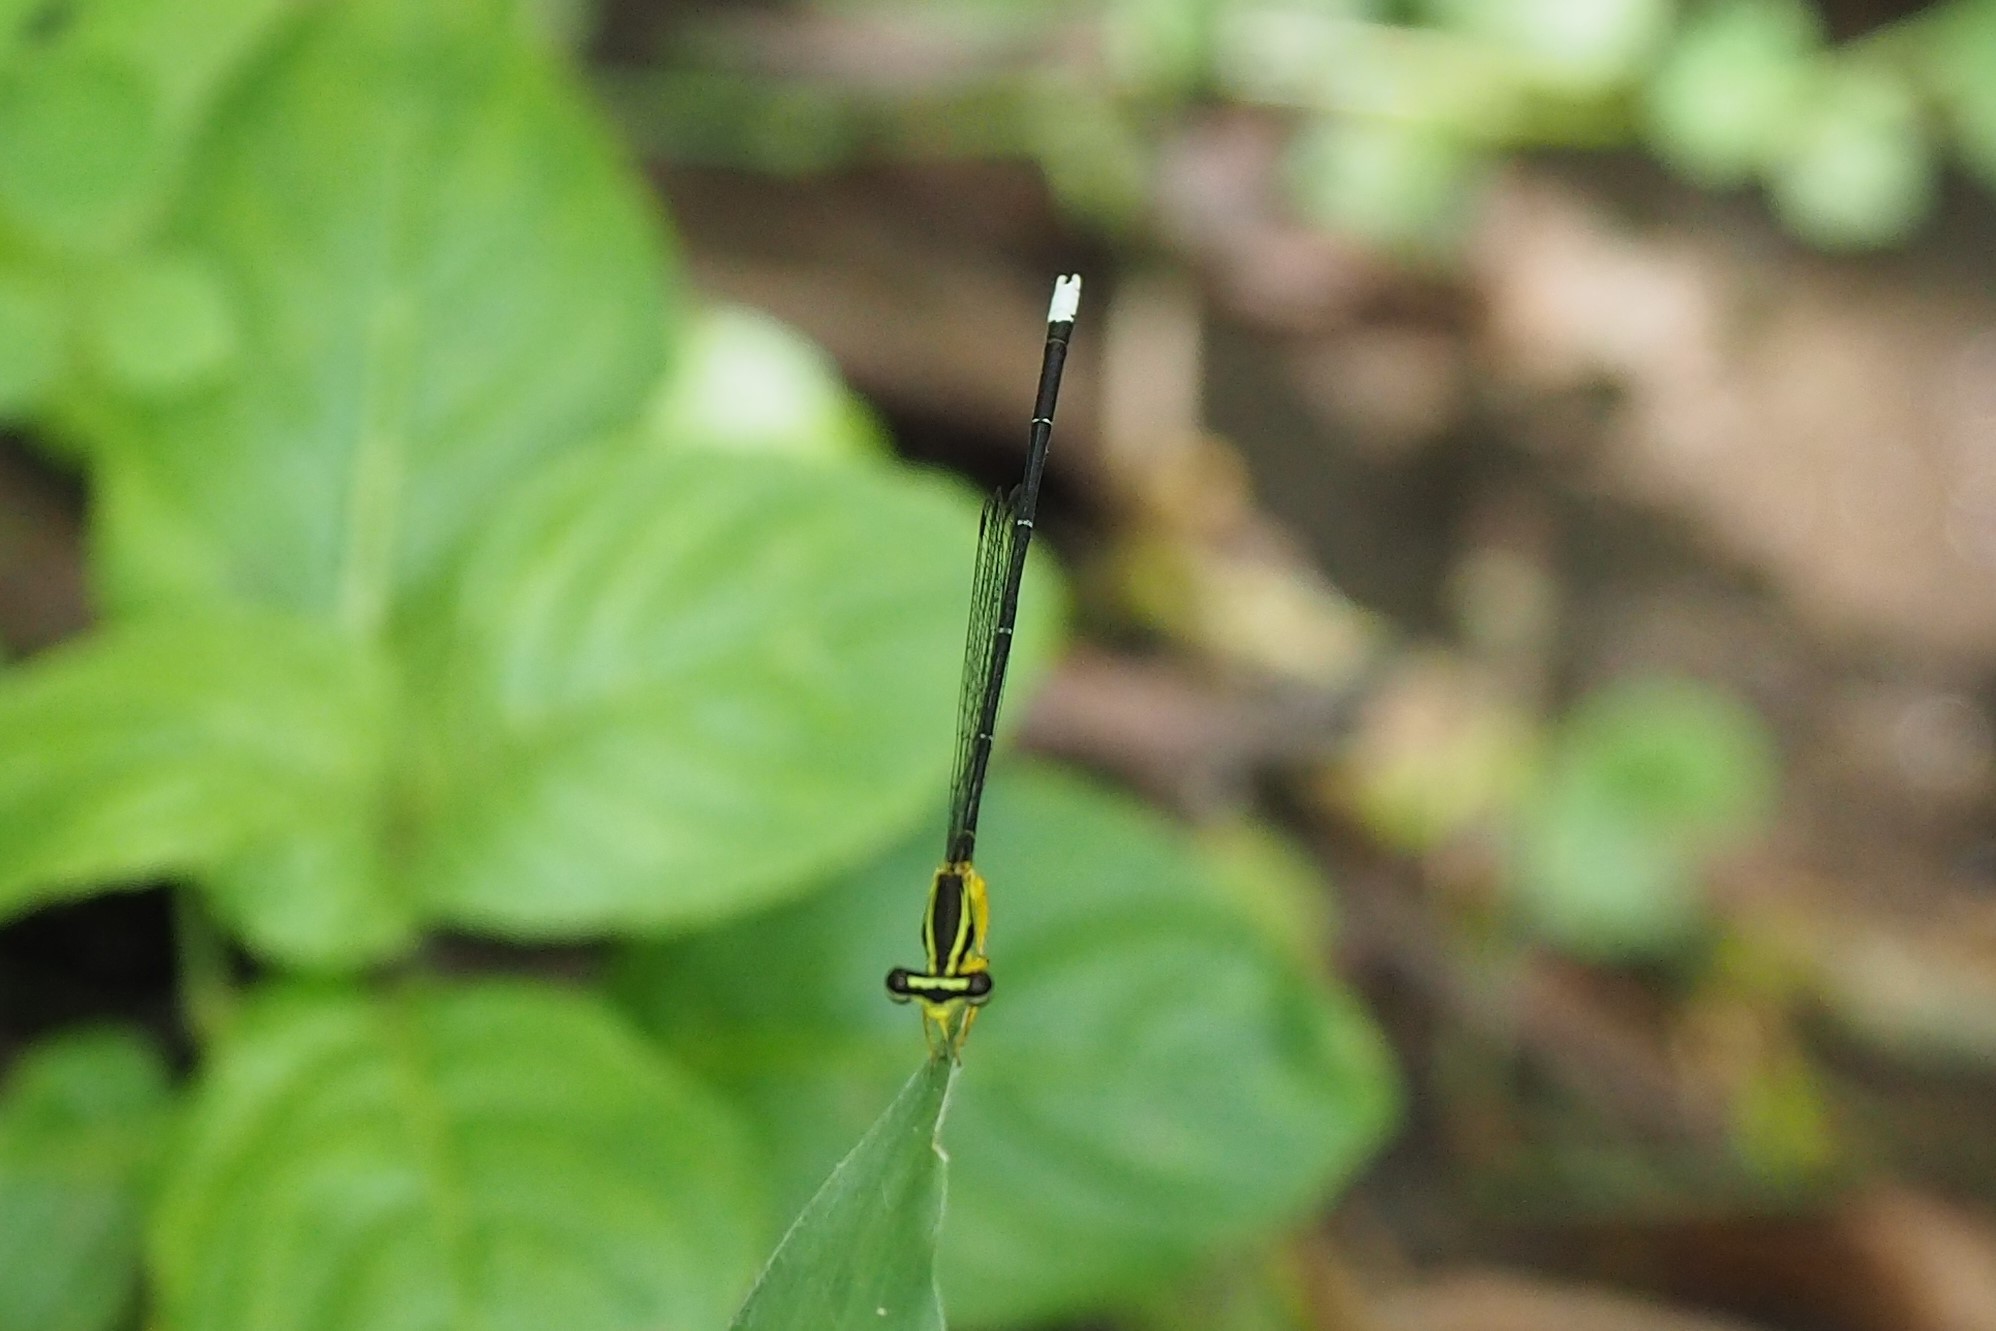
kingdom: Animalia
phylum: Arthropoda
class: Insecta
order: Odonata
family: Platycnemididae
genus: Copera
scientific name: Copera marginipes
